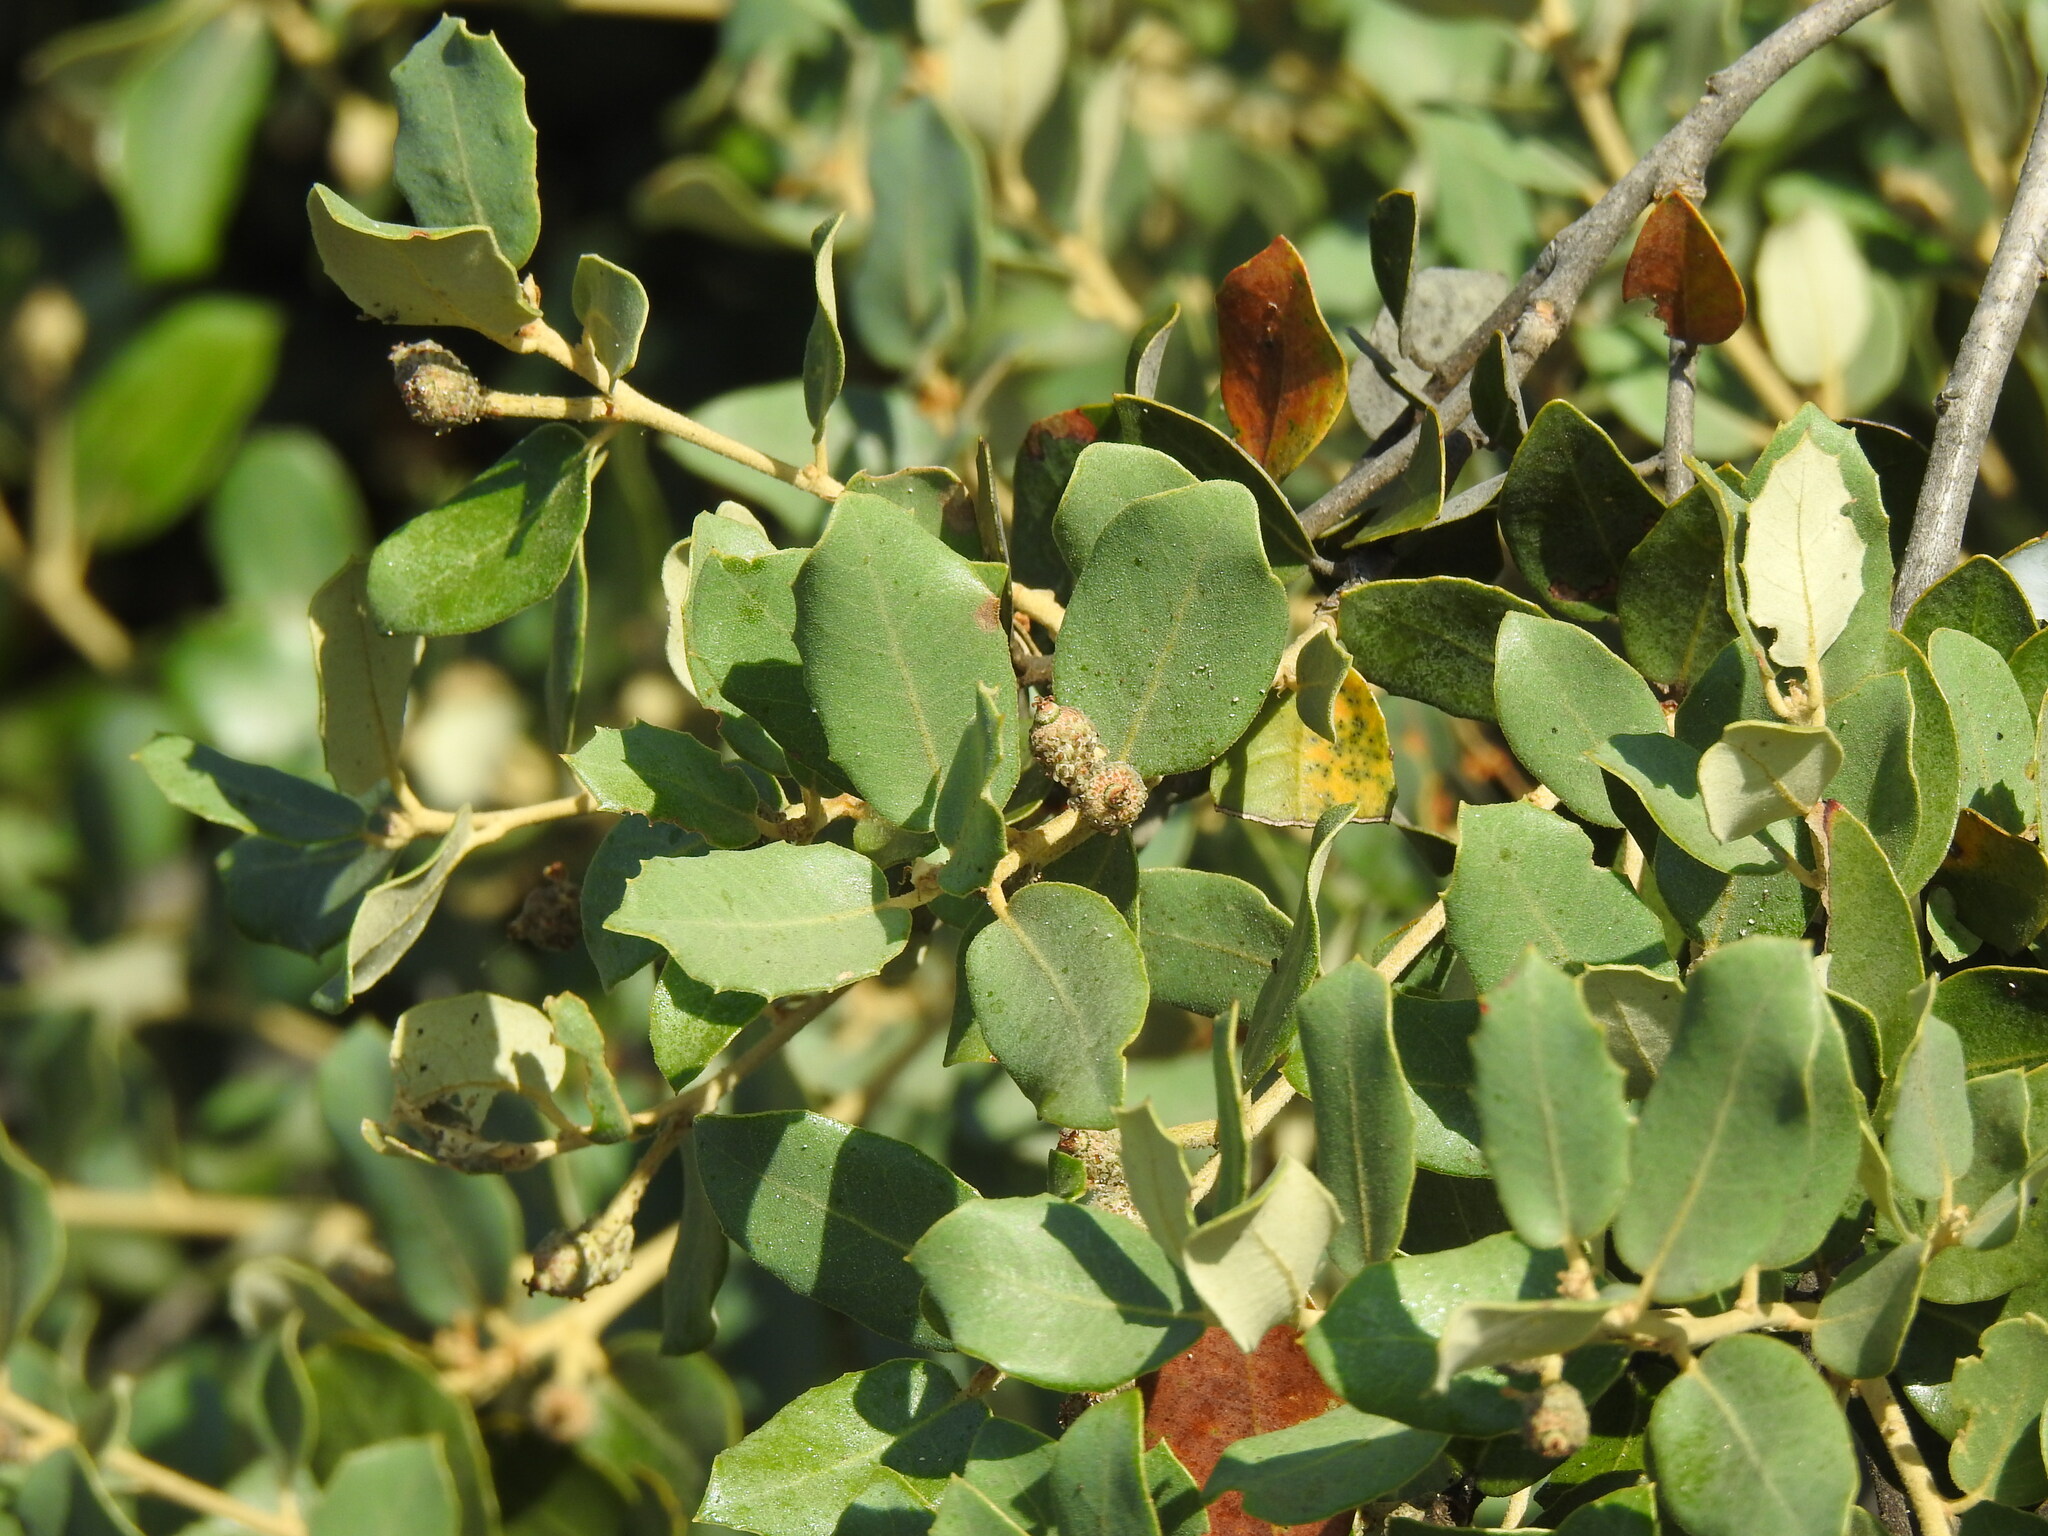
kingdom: Plantae
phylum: Tracheophyta
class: Magnoliopsida
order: Fagales
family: Fagaceae
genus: Quercus
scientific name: Quercus rotundifolia
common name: Holm oak
